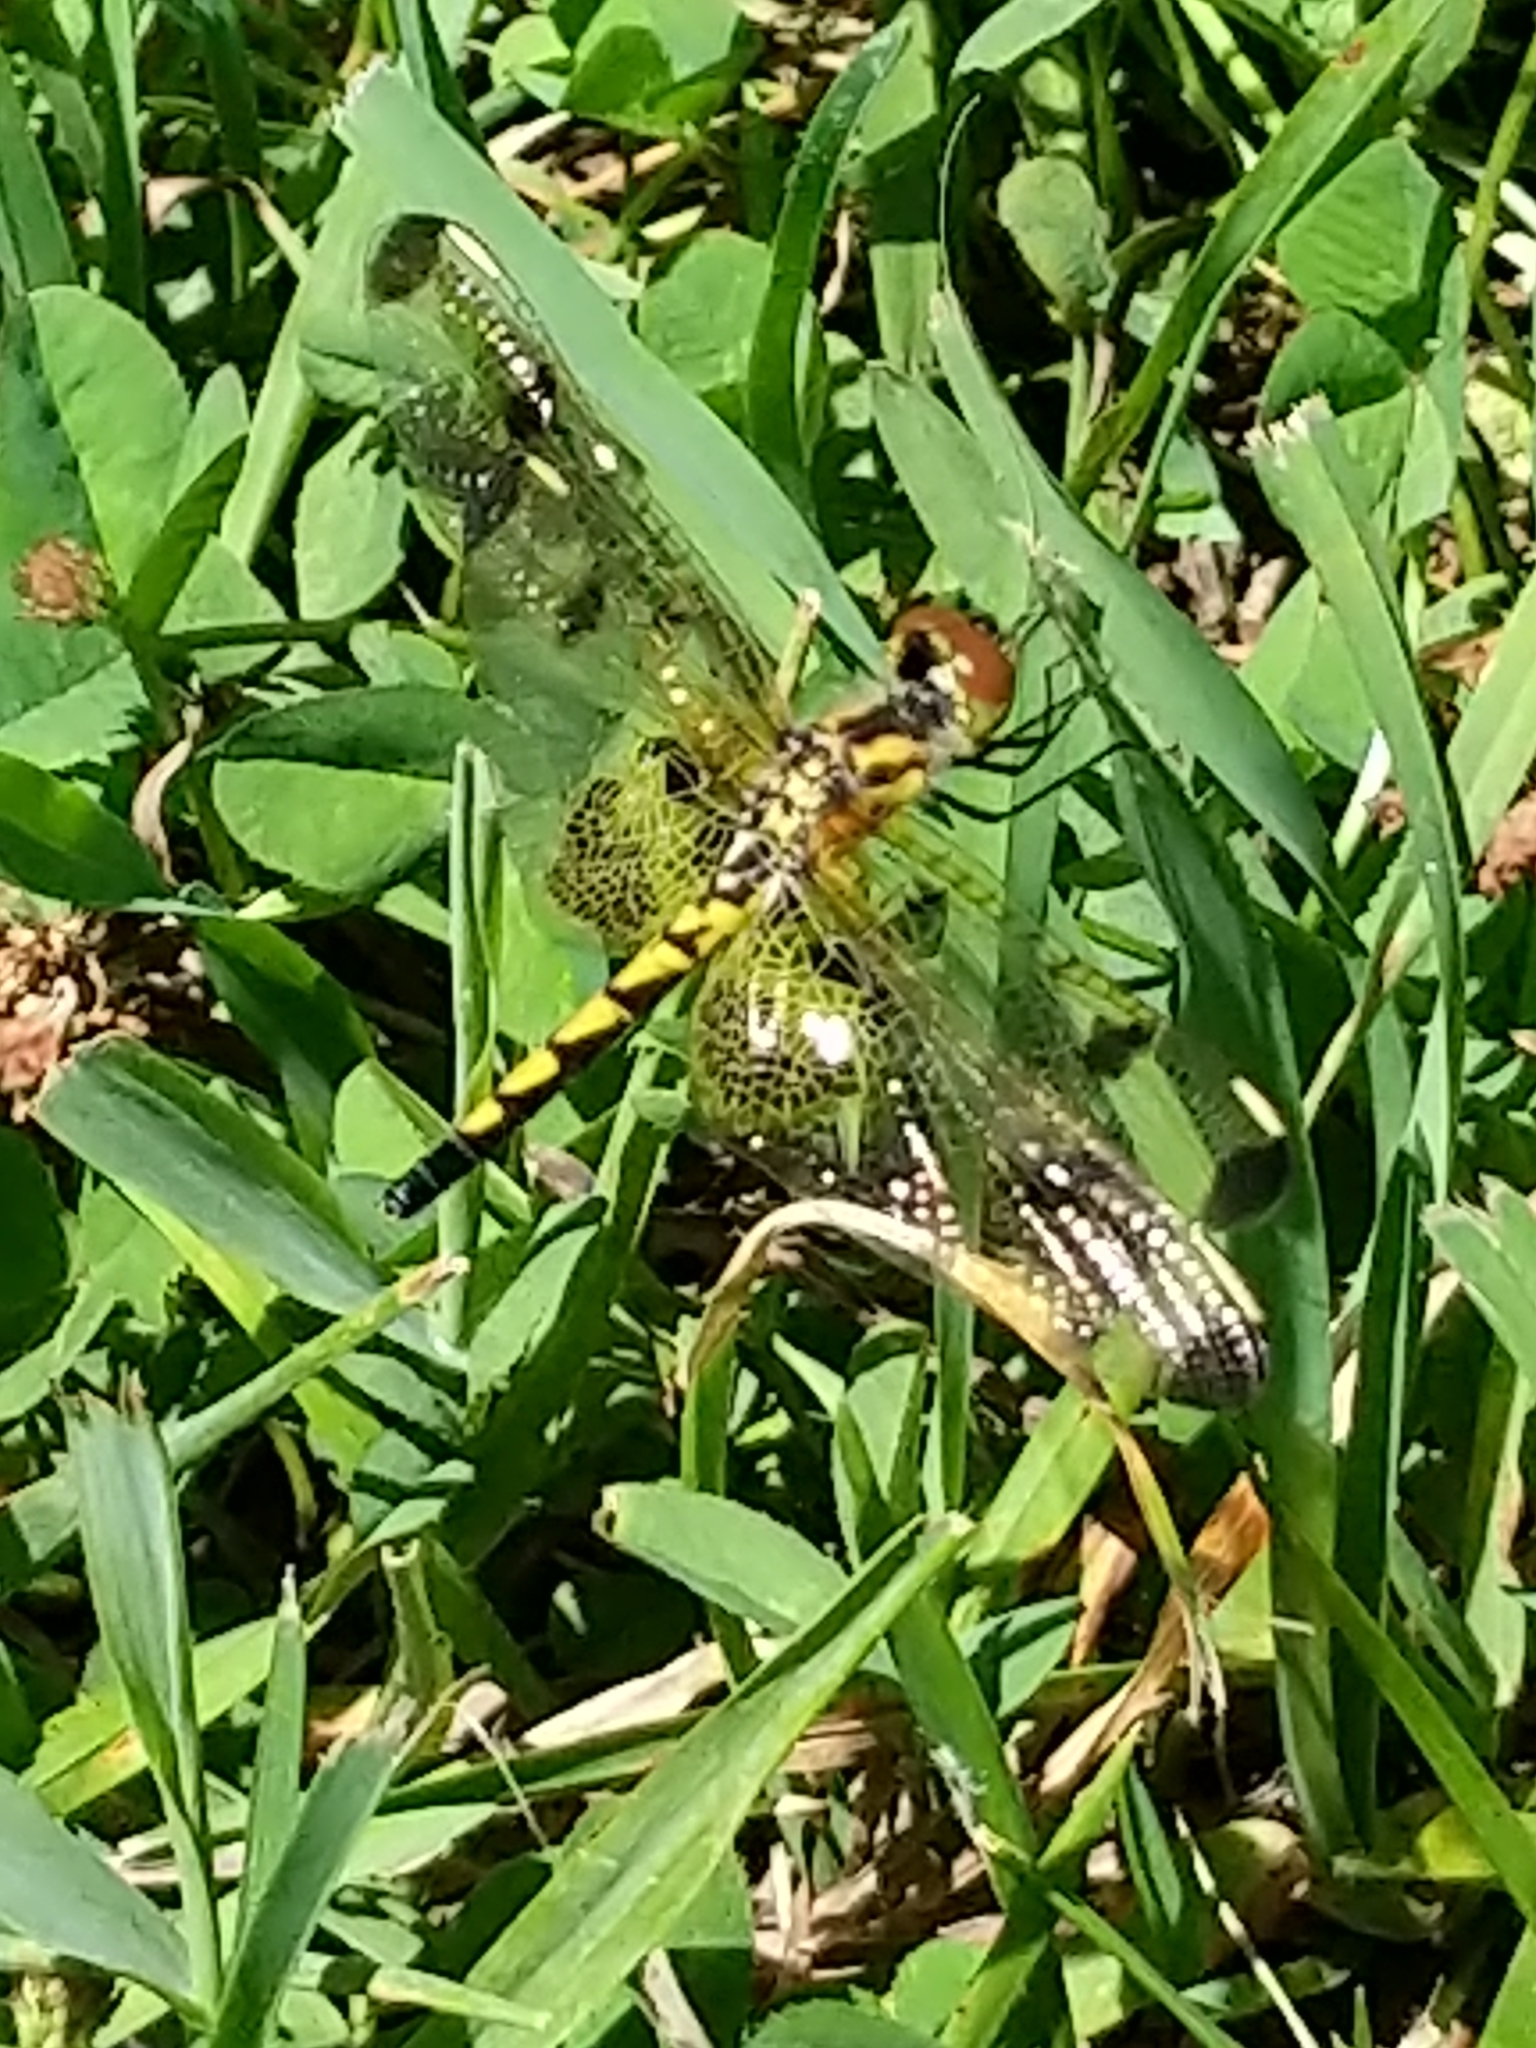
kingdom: Animalia
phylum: Arthropoda
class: Insecta
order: Odonata
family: Libellulidae
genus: Celithemis
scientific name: Celithemis elisa
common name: Calico pennant
